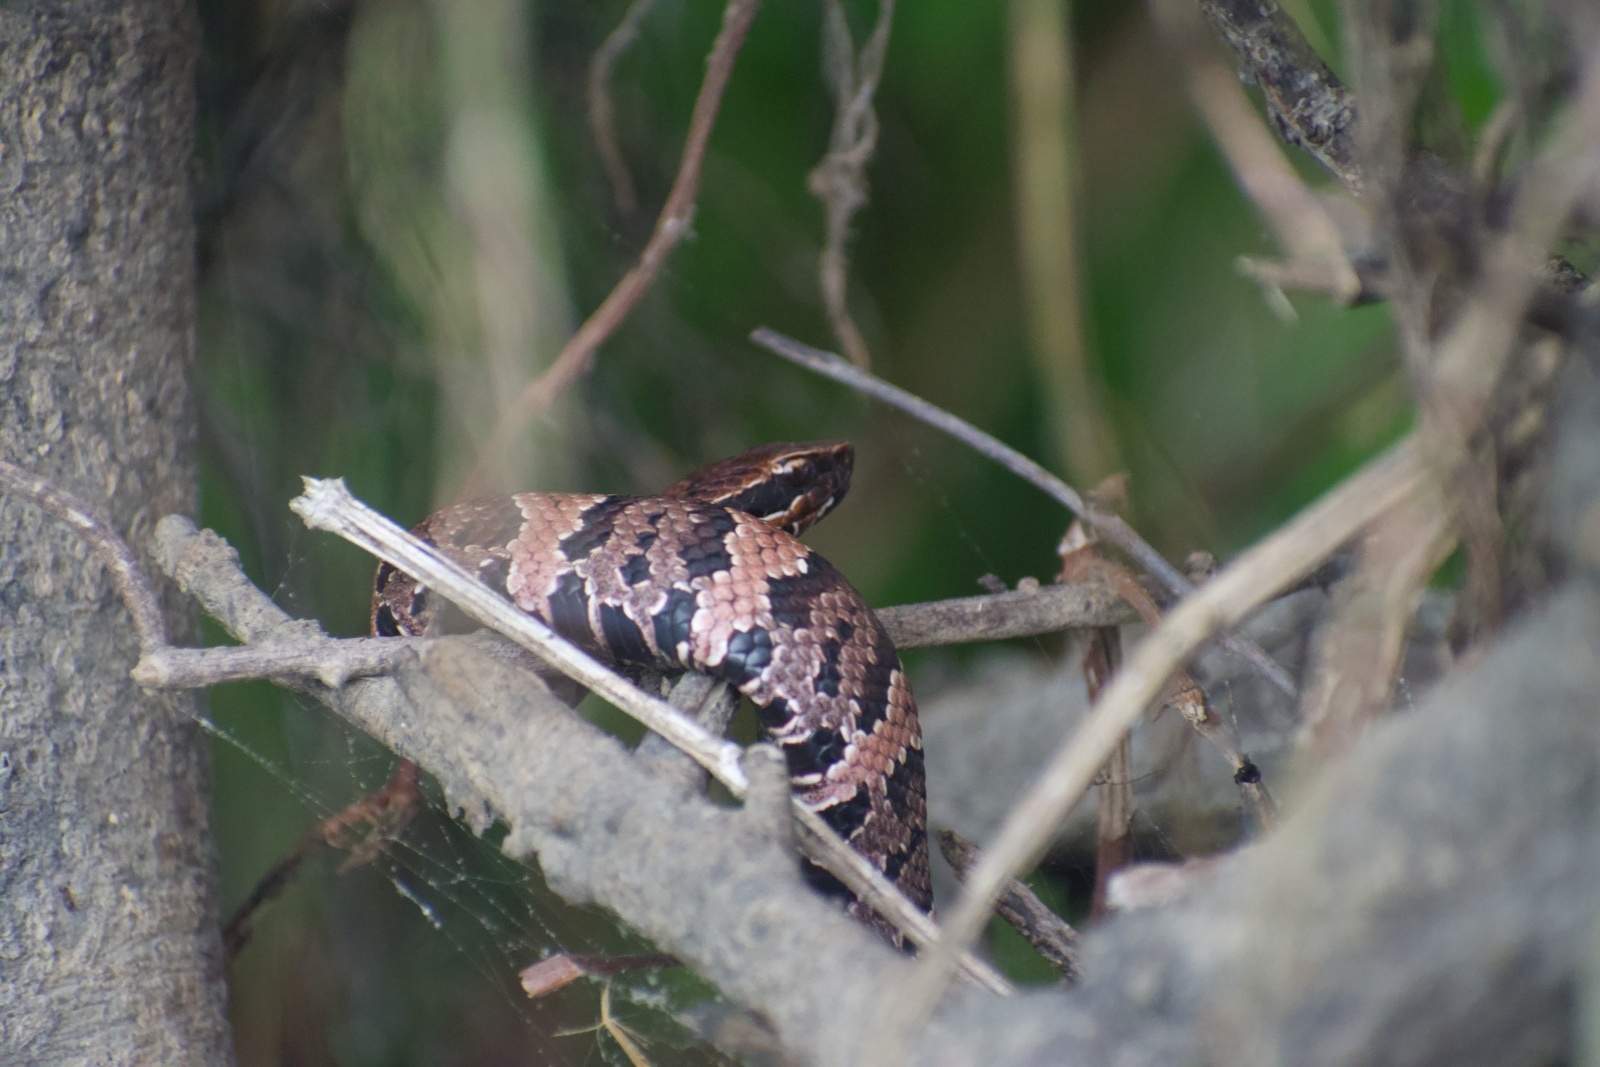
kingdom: Animalia
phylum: Chordata
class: Squamata
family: Viperidae
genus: Agkistrodon
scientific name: Agkistrodon piscivorus
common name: Cottonmouth
